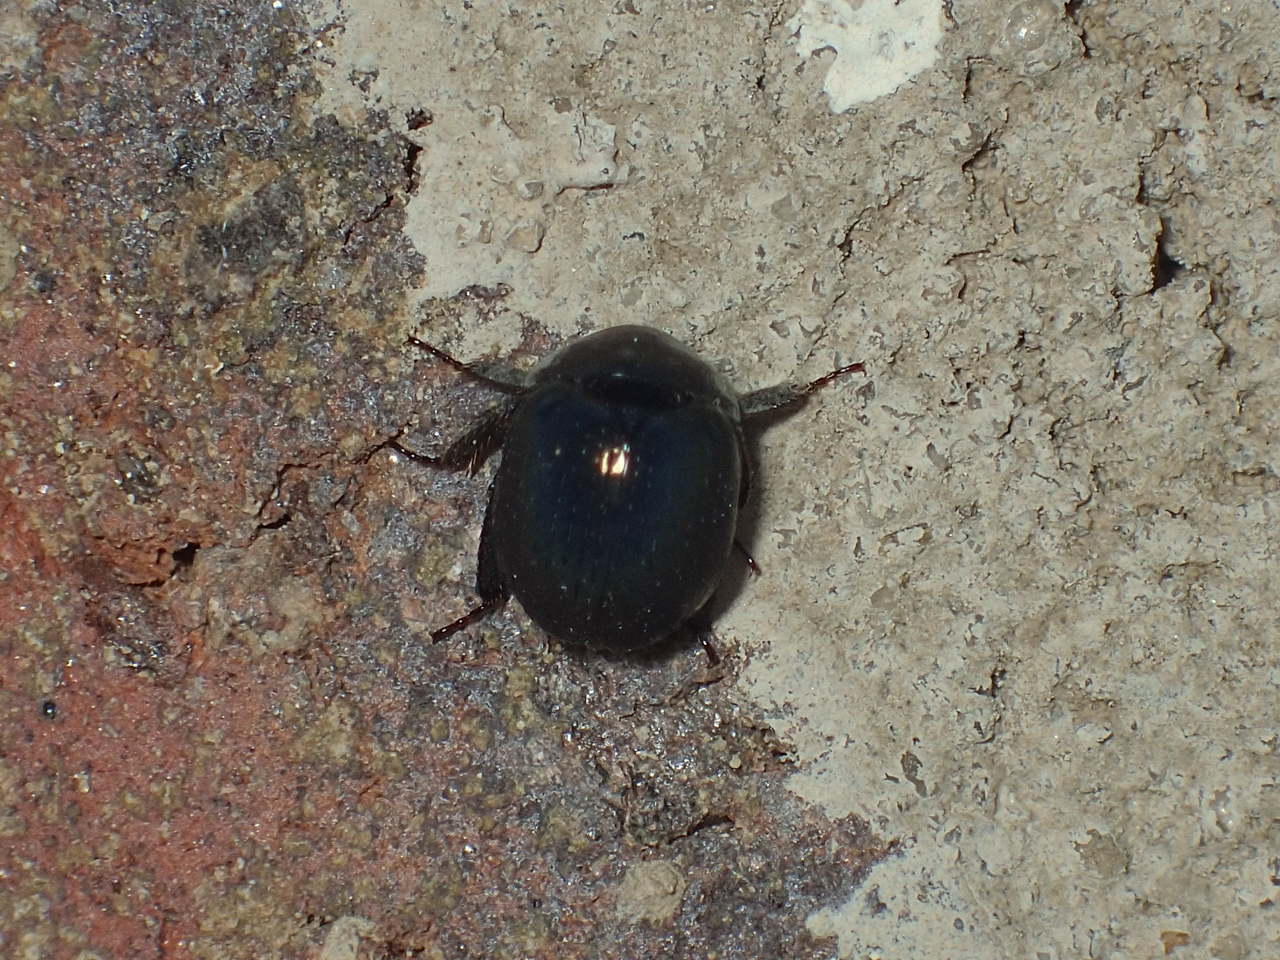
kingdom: Animalia
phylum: Arthropoda
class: Insecta
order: Coleoptera
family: Hybosoridae
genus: Germarostes
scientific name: Germarostes globosus
